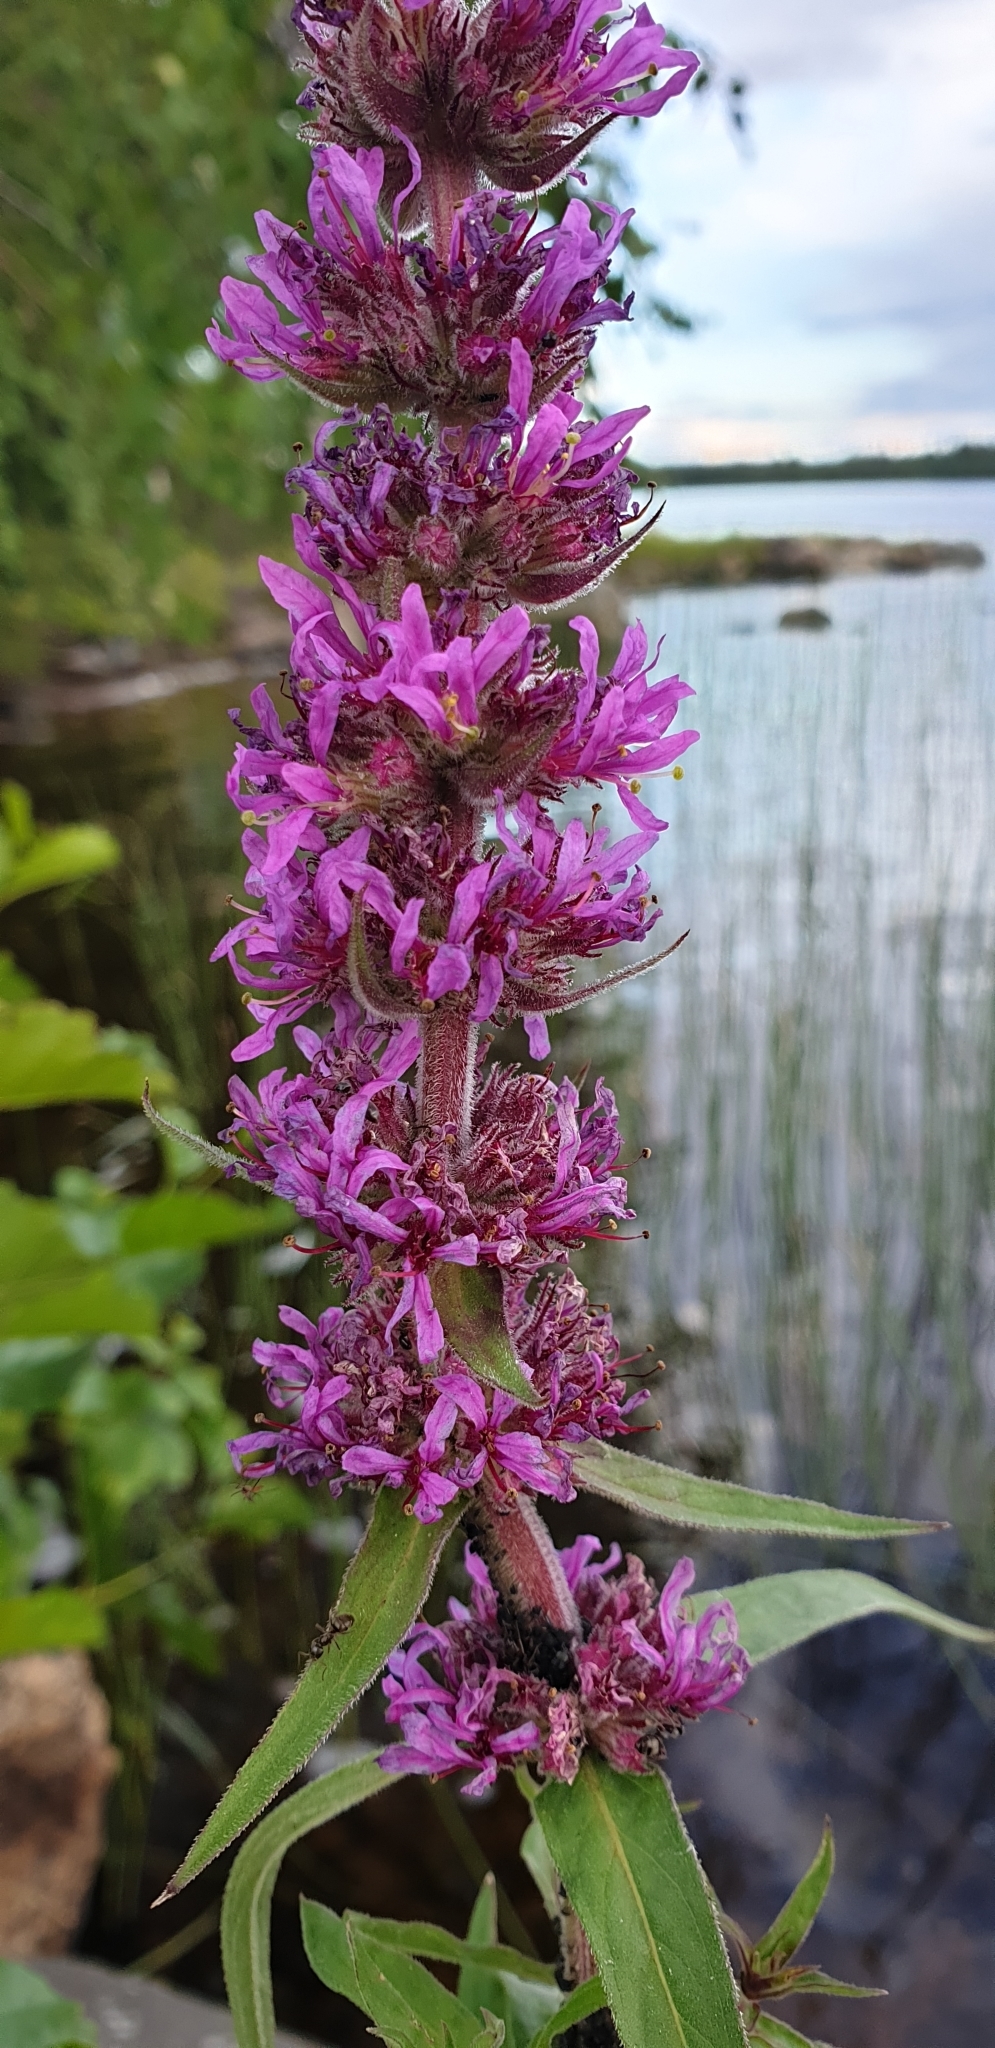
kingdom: Plantae
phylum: Tracheophyta
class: Magnoliopsida
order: Myrtales
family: Lythraceae
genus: Lythrum
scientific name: Lythrum salicaria
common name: Purple loosestrife
